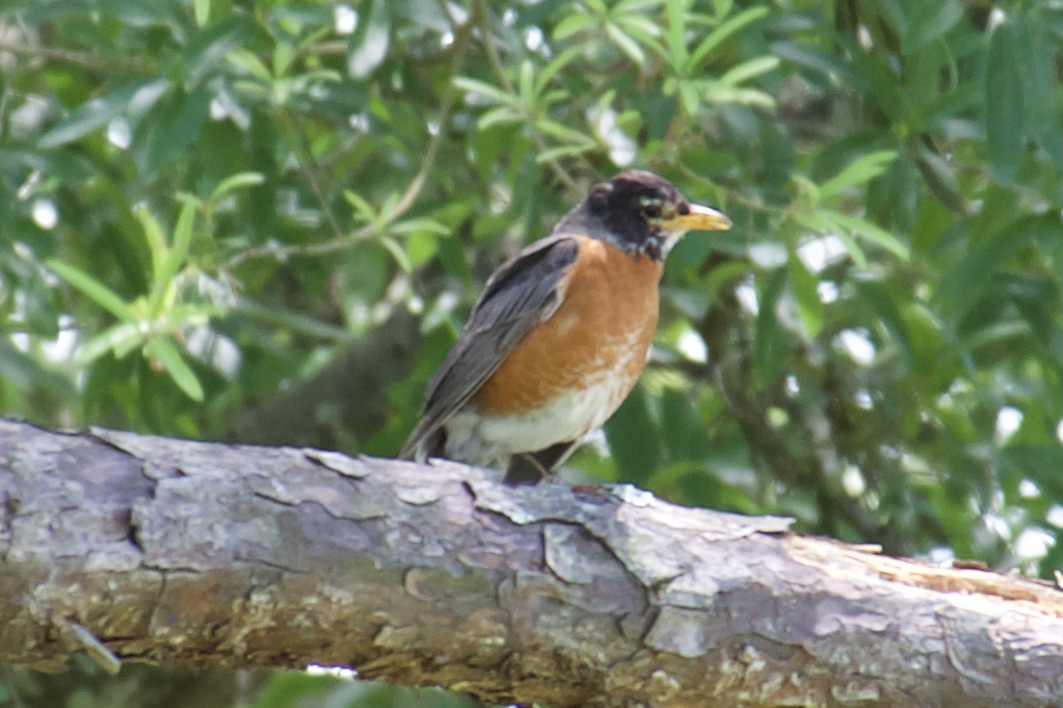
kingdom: Animalia
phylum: Chordata
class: Aves
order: Passeriformes
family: Turdidae
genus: Turdus
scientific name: Turdus migratorius
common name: American robin
